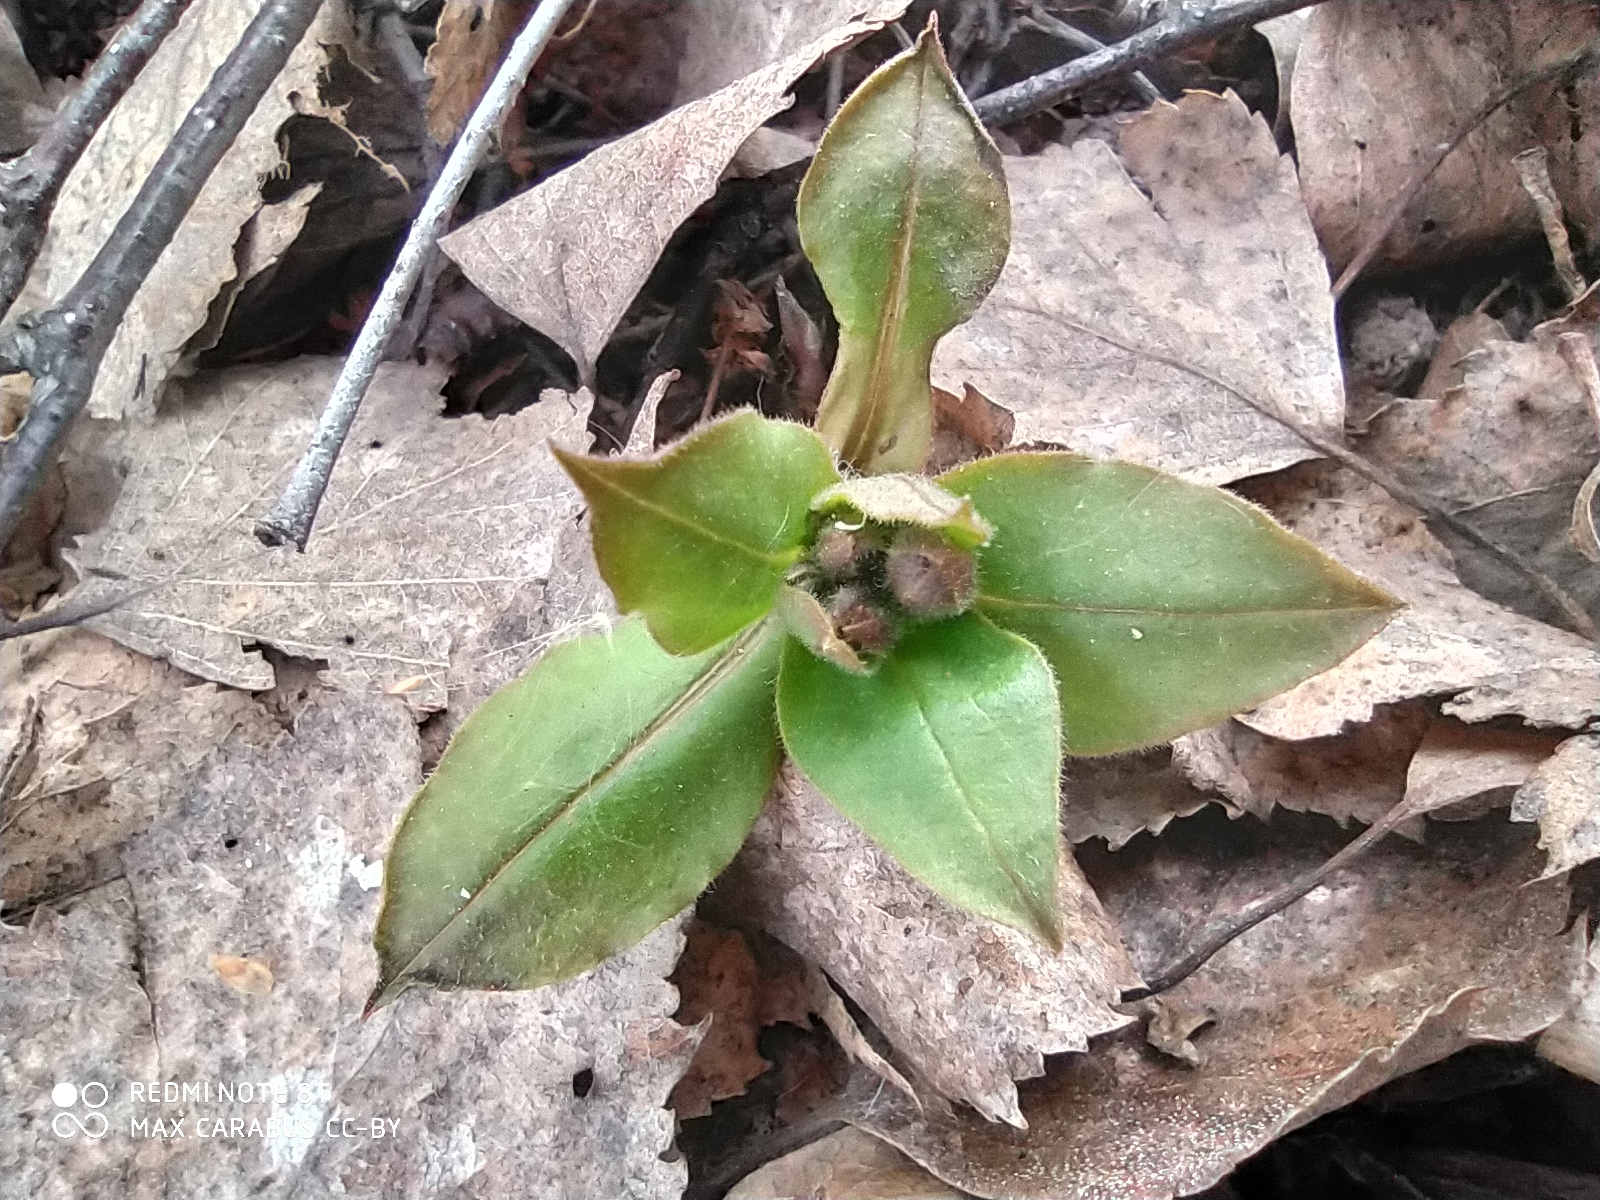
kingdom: Plantae
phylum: Tracheophyta
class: Magnoliopsida
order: Boraginales
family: Boraginaceae
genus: Pulmonaria
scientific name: Pulmonaria obscura
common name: Suffolk lungwort
